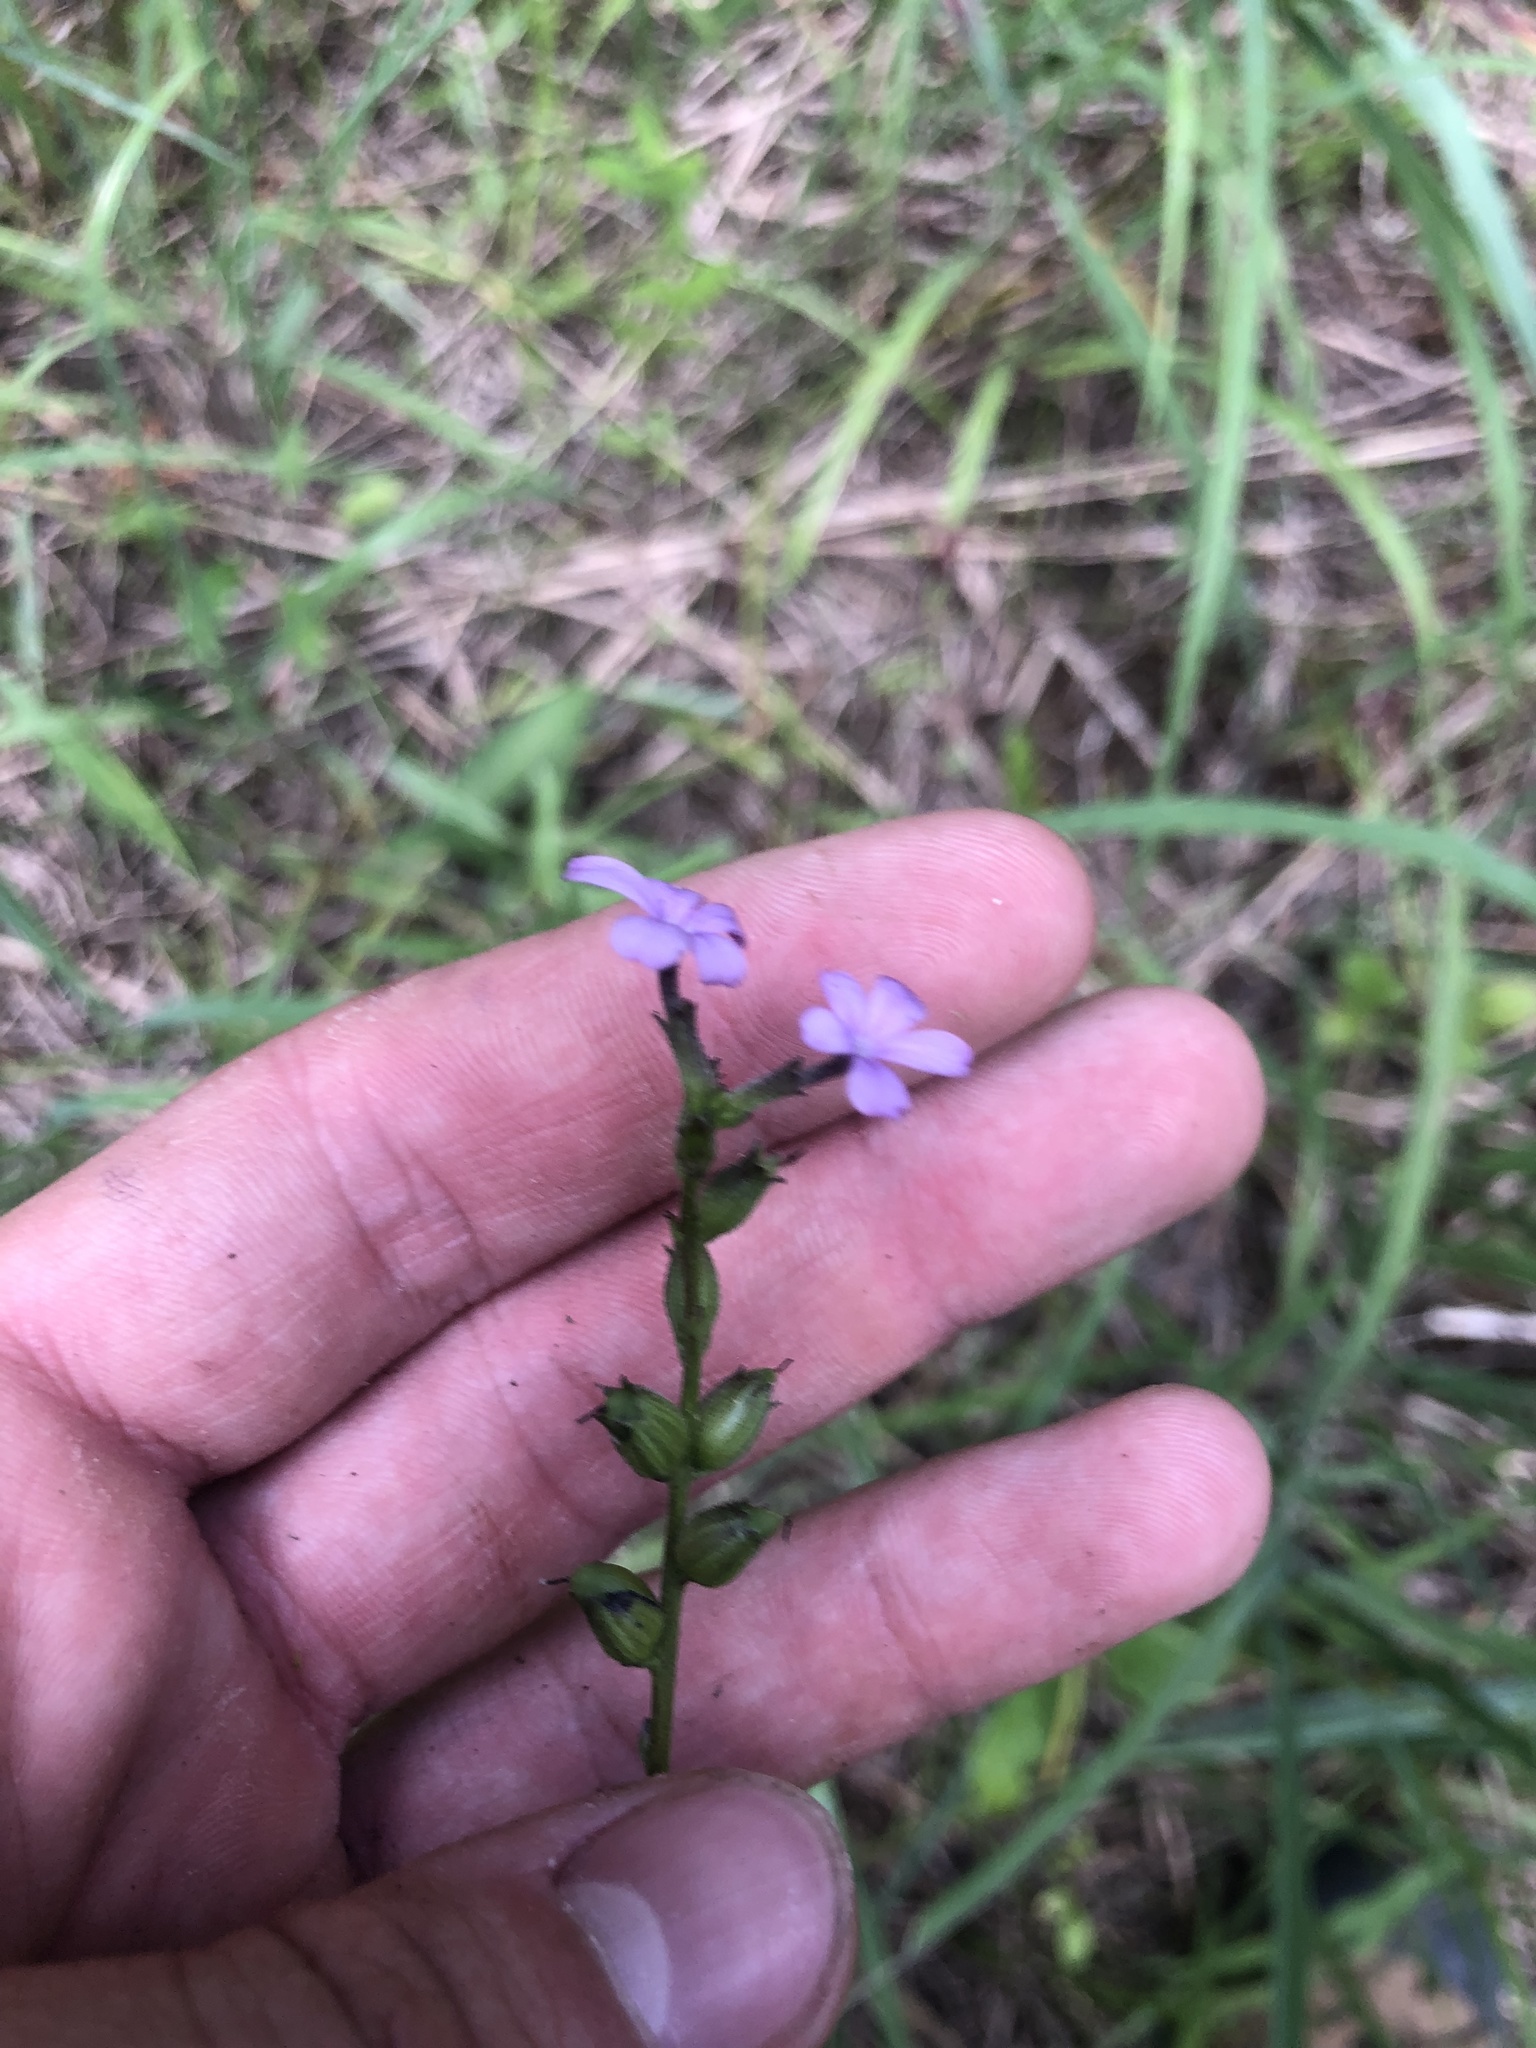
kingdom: Plantae
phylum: Tracheophyta
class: Magnoliopsida
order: Lamiales
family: Orobanchaceae
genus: Buchnera
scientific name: Buchnera floridana
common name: Florida bluehearts
